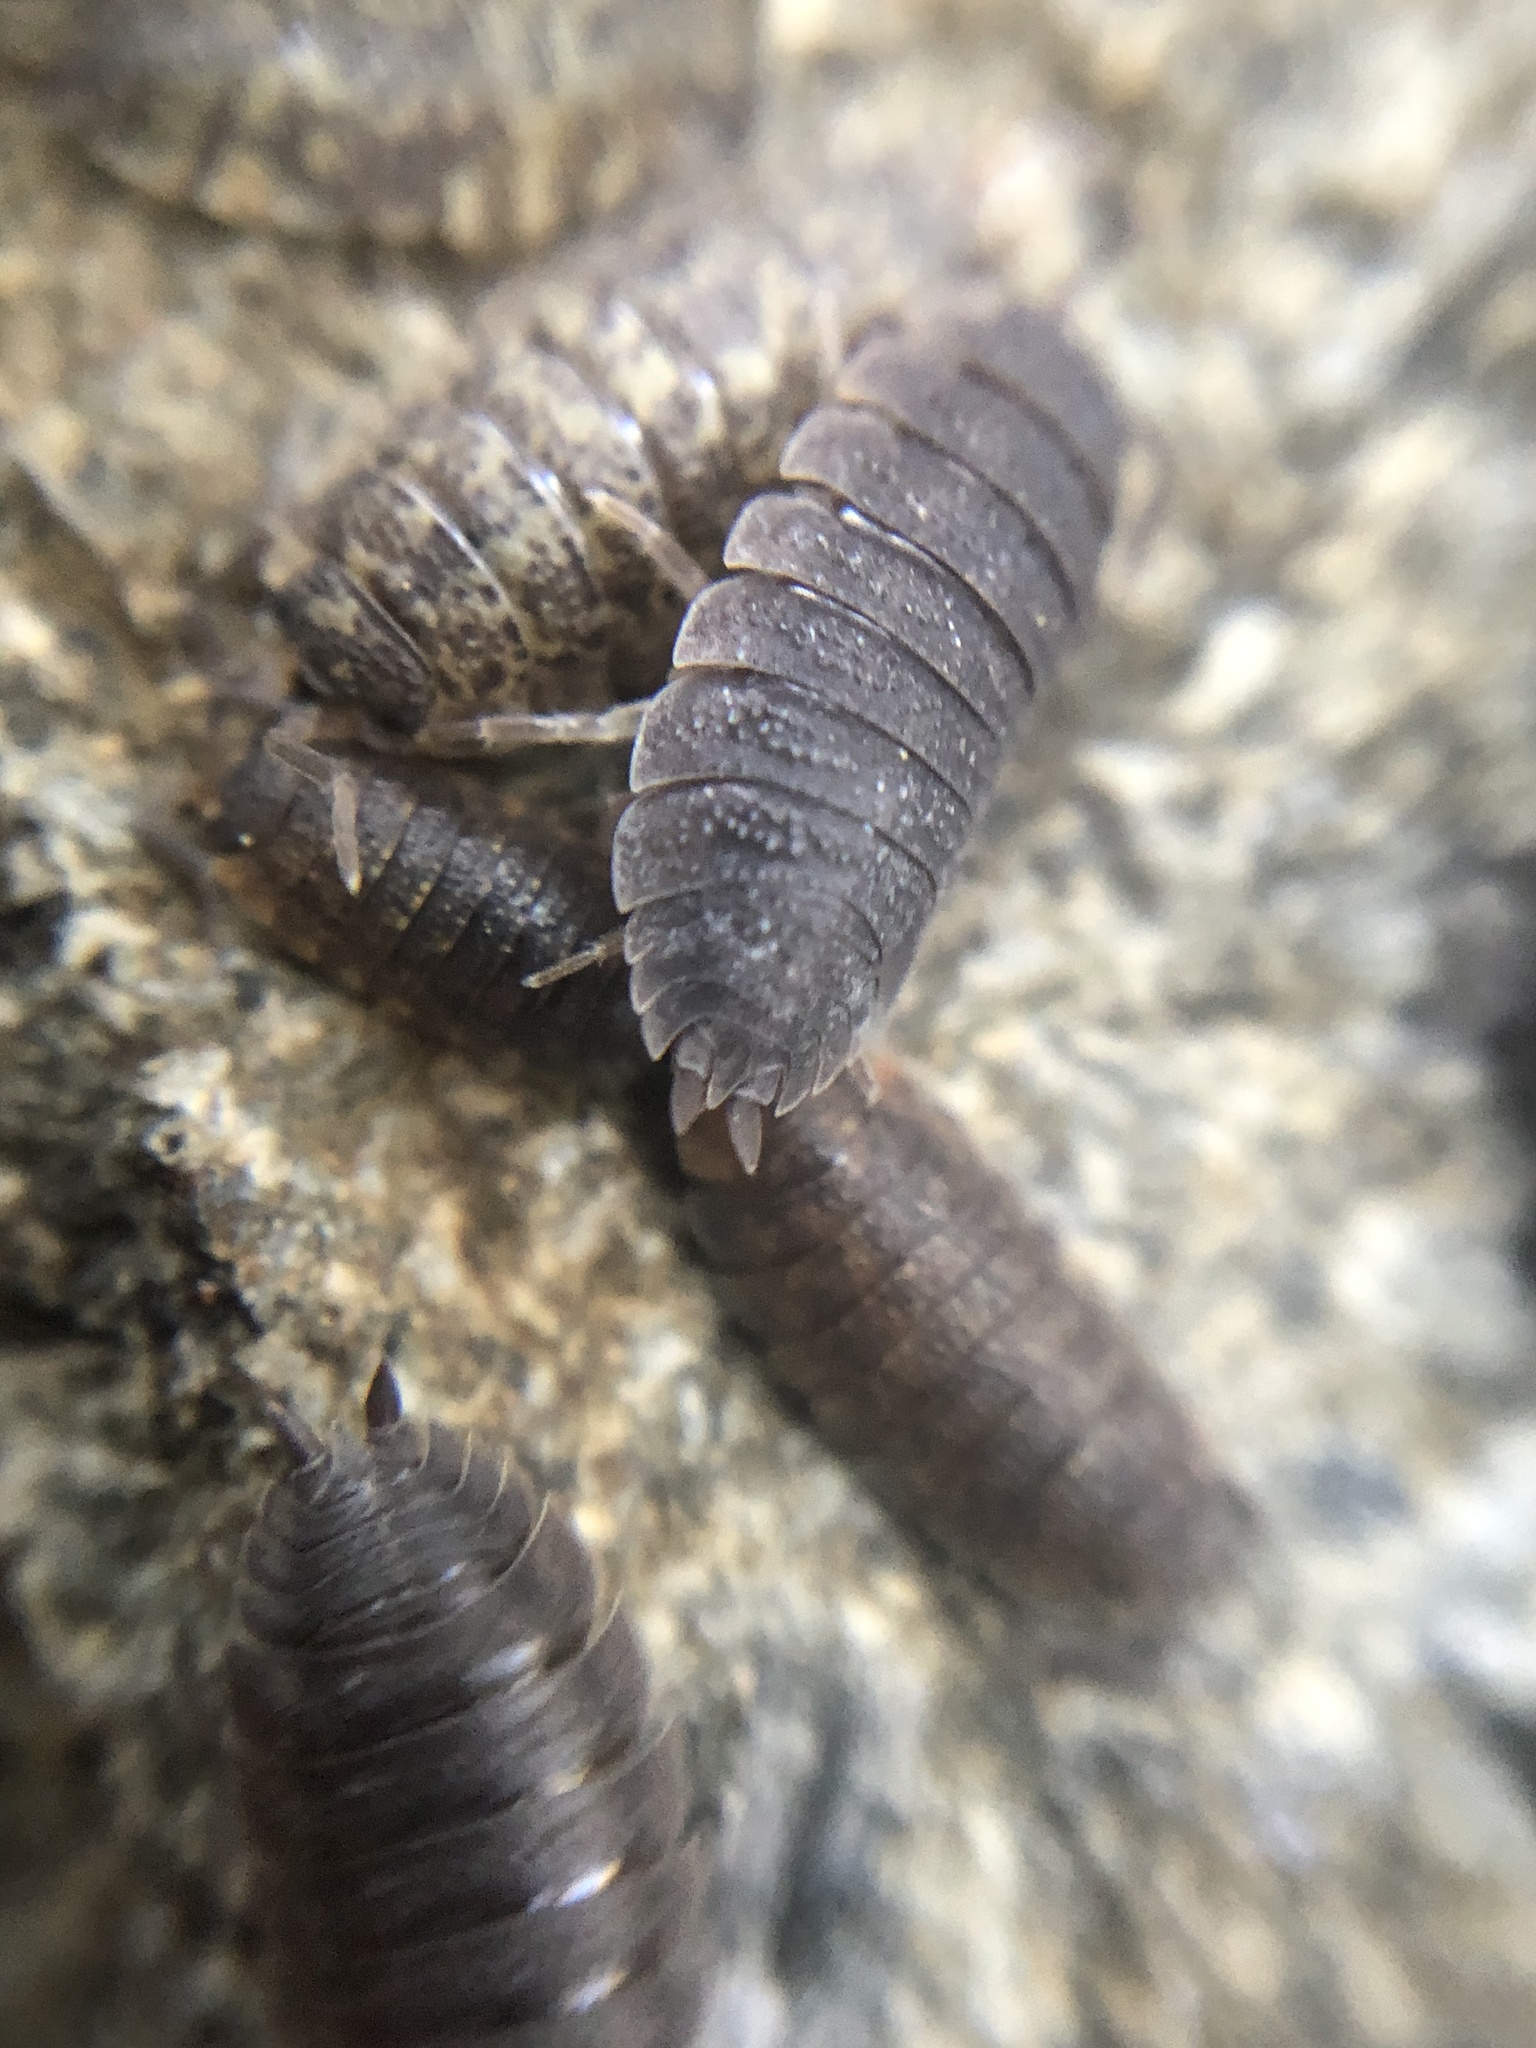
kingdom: Animalia
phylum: Mollusca
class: Gastropoda
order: Stylommatophora
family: Arionidae
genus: Arion
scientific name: Arion subfuscus
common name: Dusky arion
